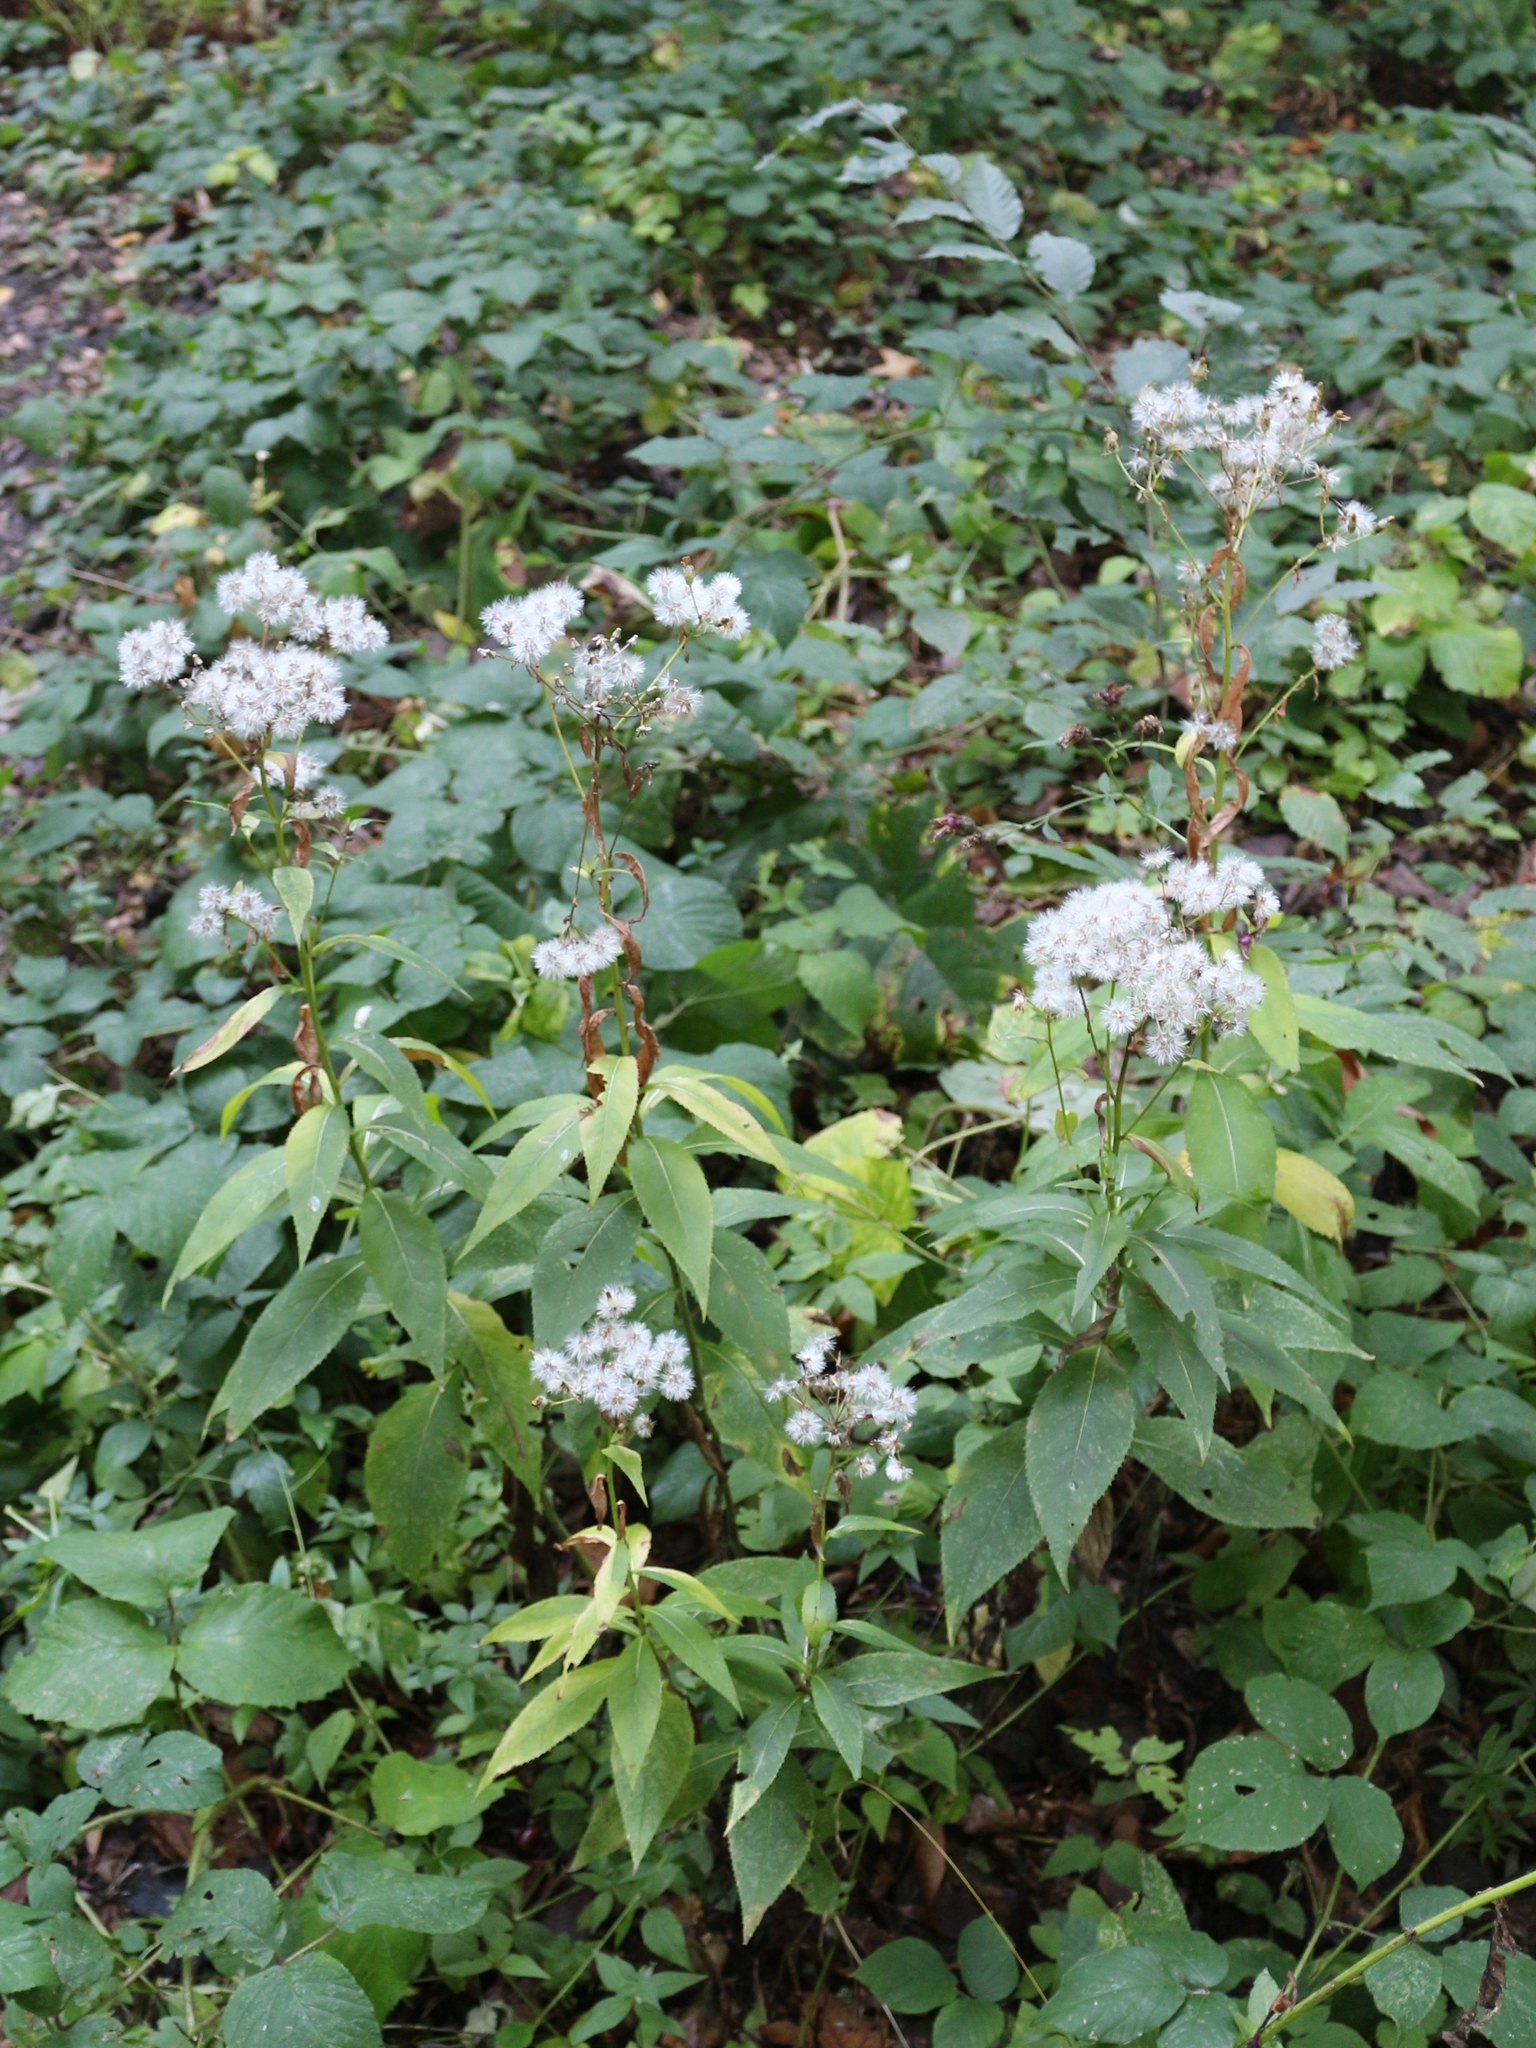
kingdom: Plantae
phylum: Tracheophyta
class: Magnoliopsida
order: Asterales
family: Asteraceae
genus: Senecio
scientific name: Senecio propinquus
